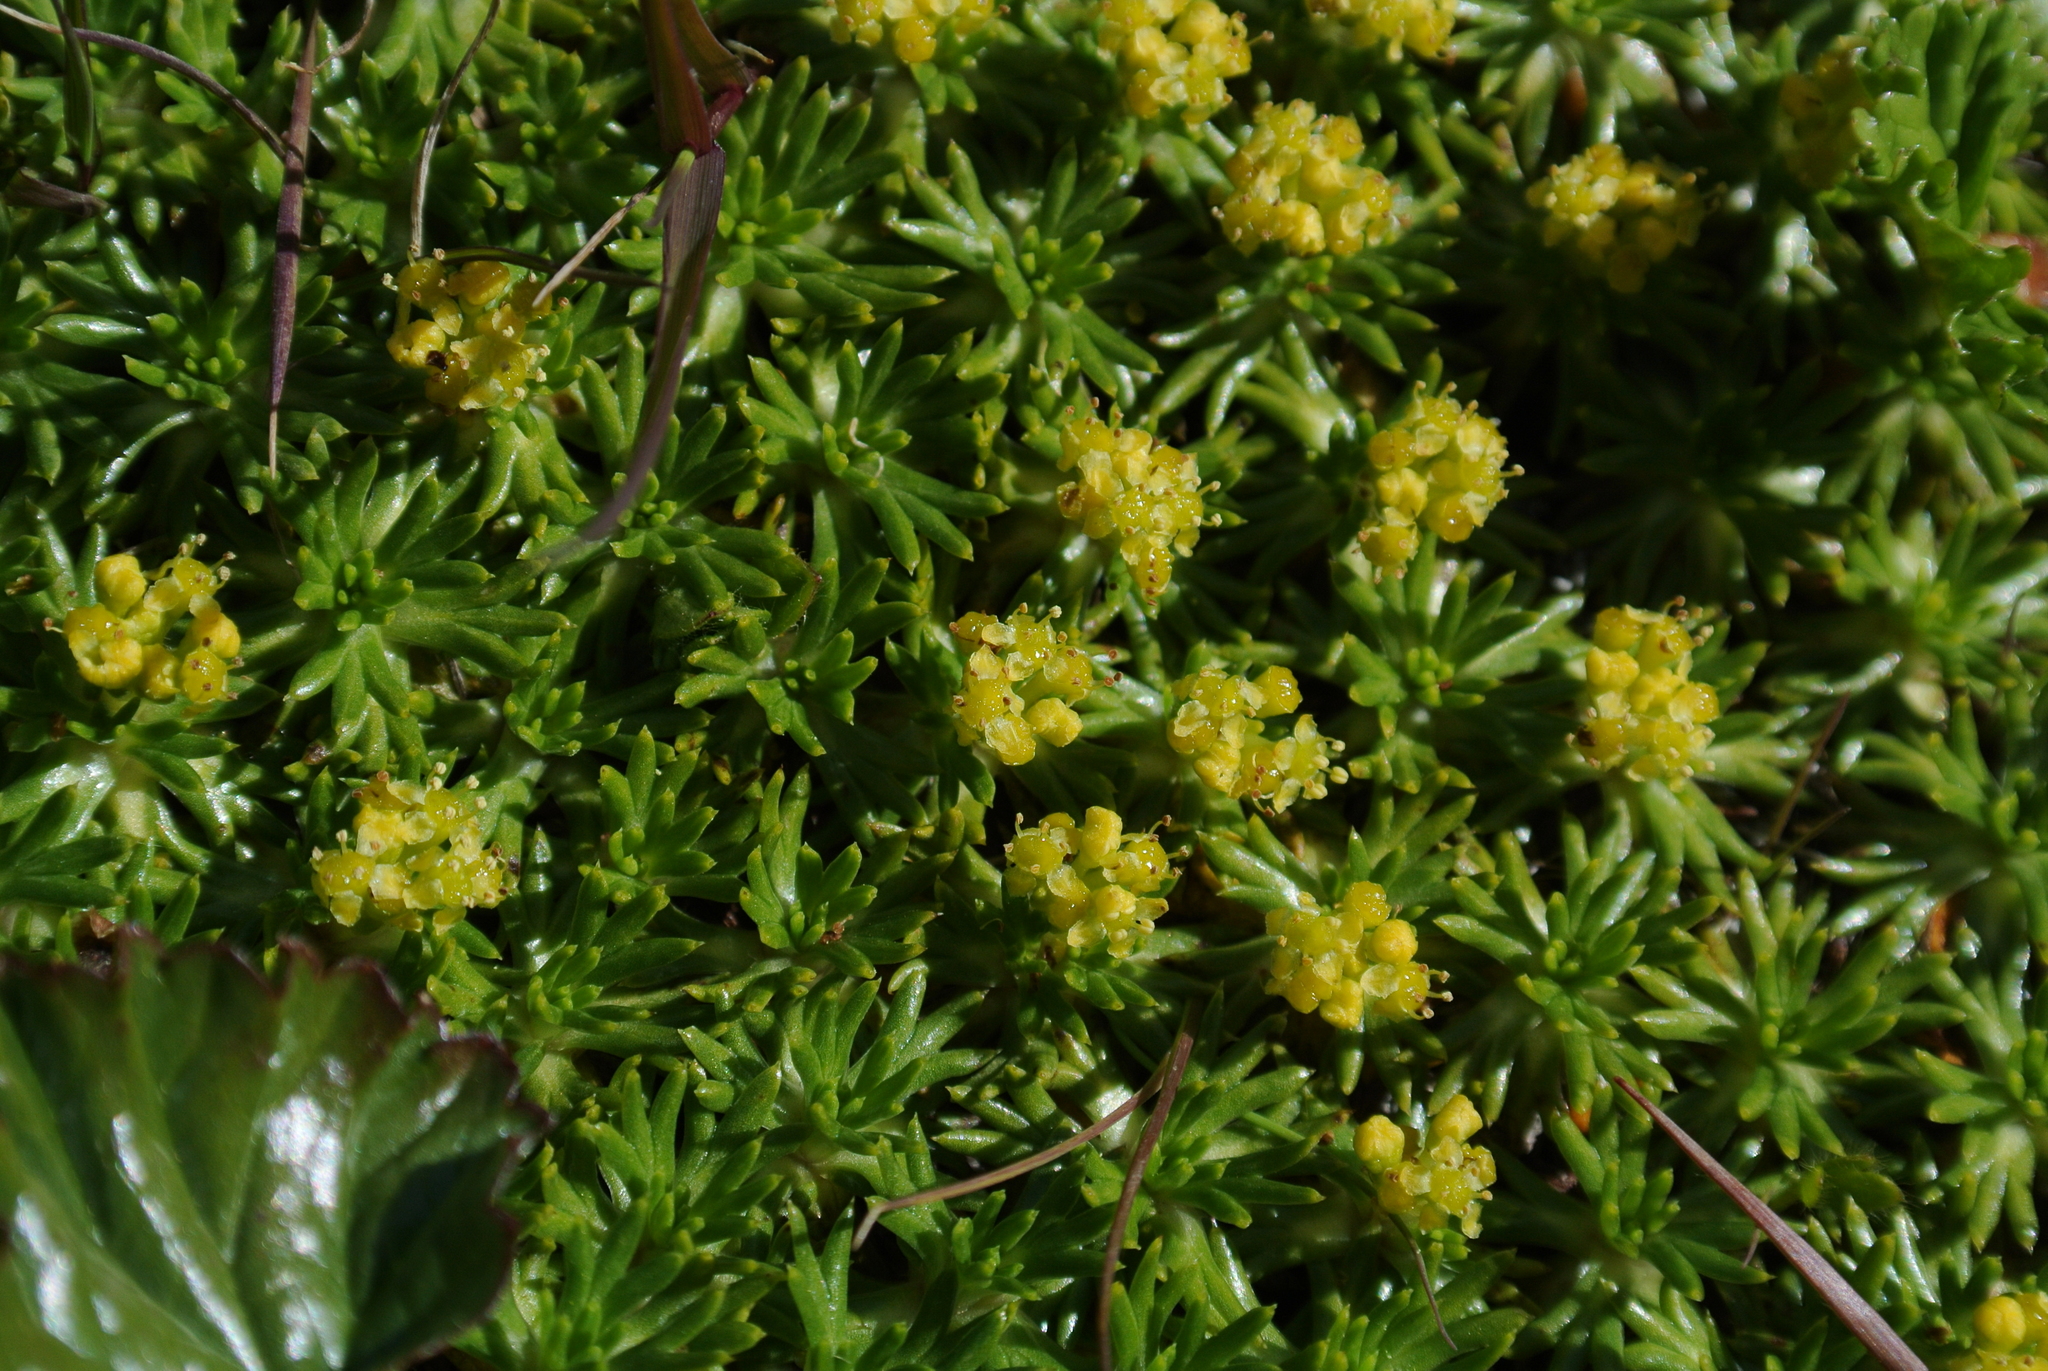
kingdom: Plantae
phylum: Tracheophyta
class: Magnoliopsida
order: Apiales
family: Apiaceae
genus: Azorella
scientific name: Azorella trifurcata
